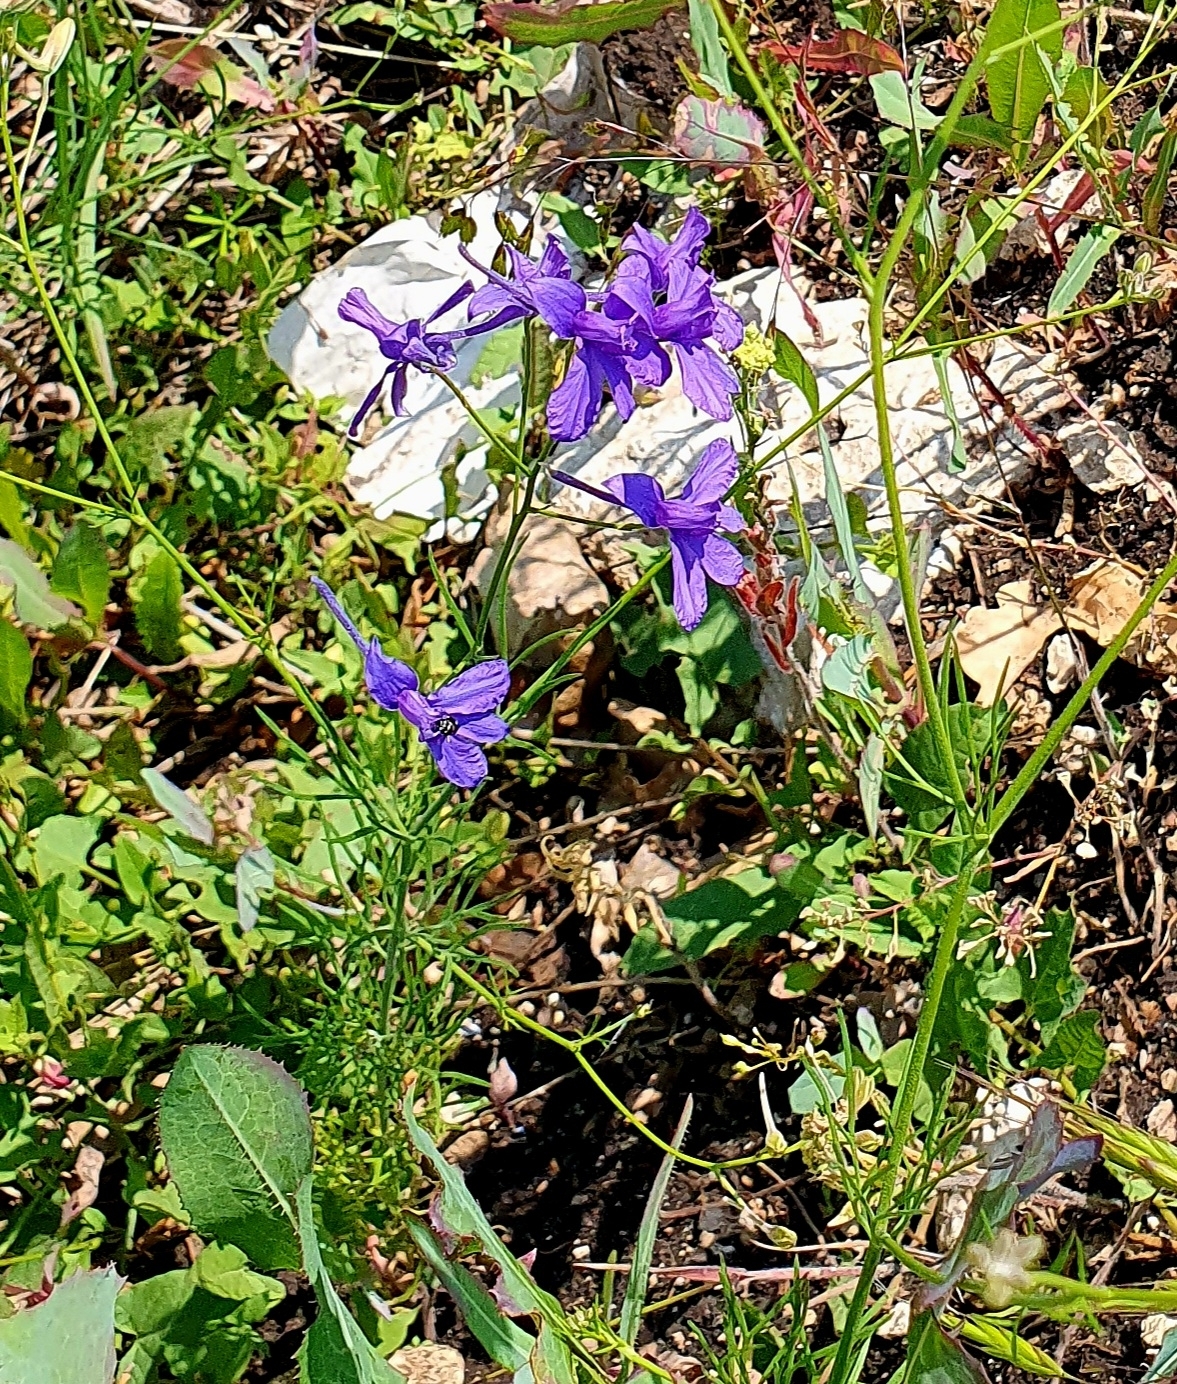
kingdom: Plantae
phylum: Tracheophyta
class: Magnoliopsida
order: Ranunculales
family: Ranunculaceae
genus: Delphinium
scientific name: Delphinium consolida
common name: Branching larkspur
